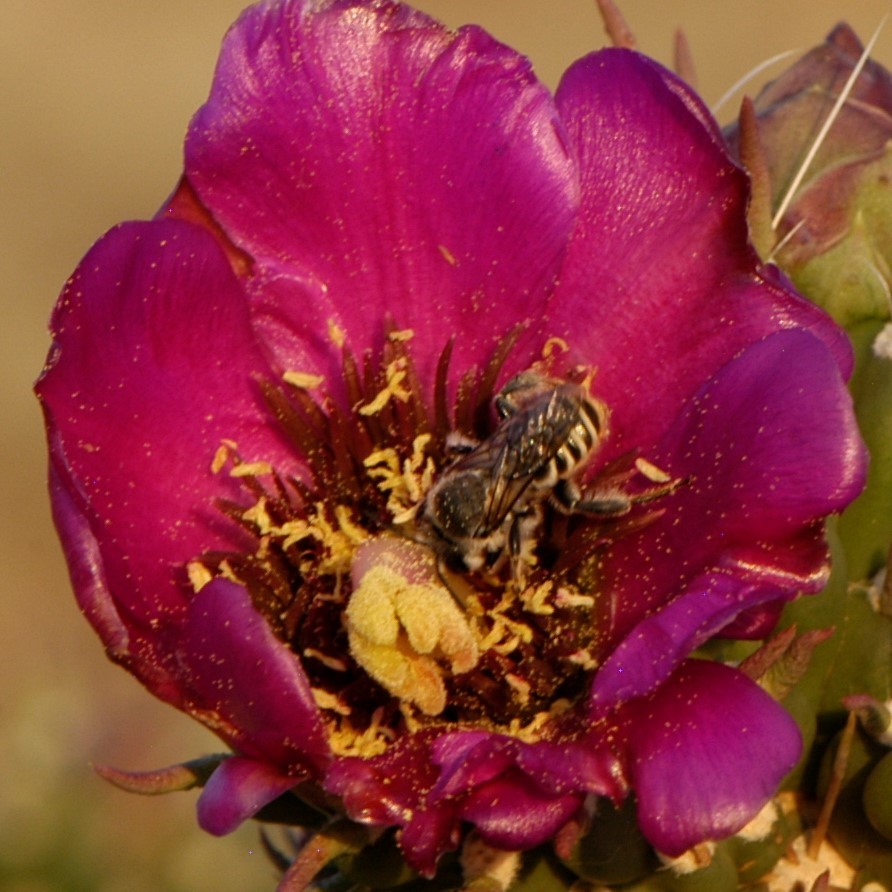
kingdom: Animalia
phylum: Arthropoda
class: Insecta
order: Hymenoptera
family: Megachilidae
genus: Lithurgopsis
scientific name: Lithurgopsis apicalis
